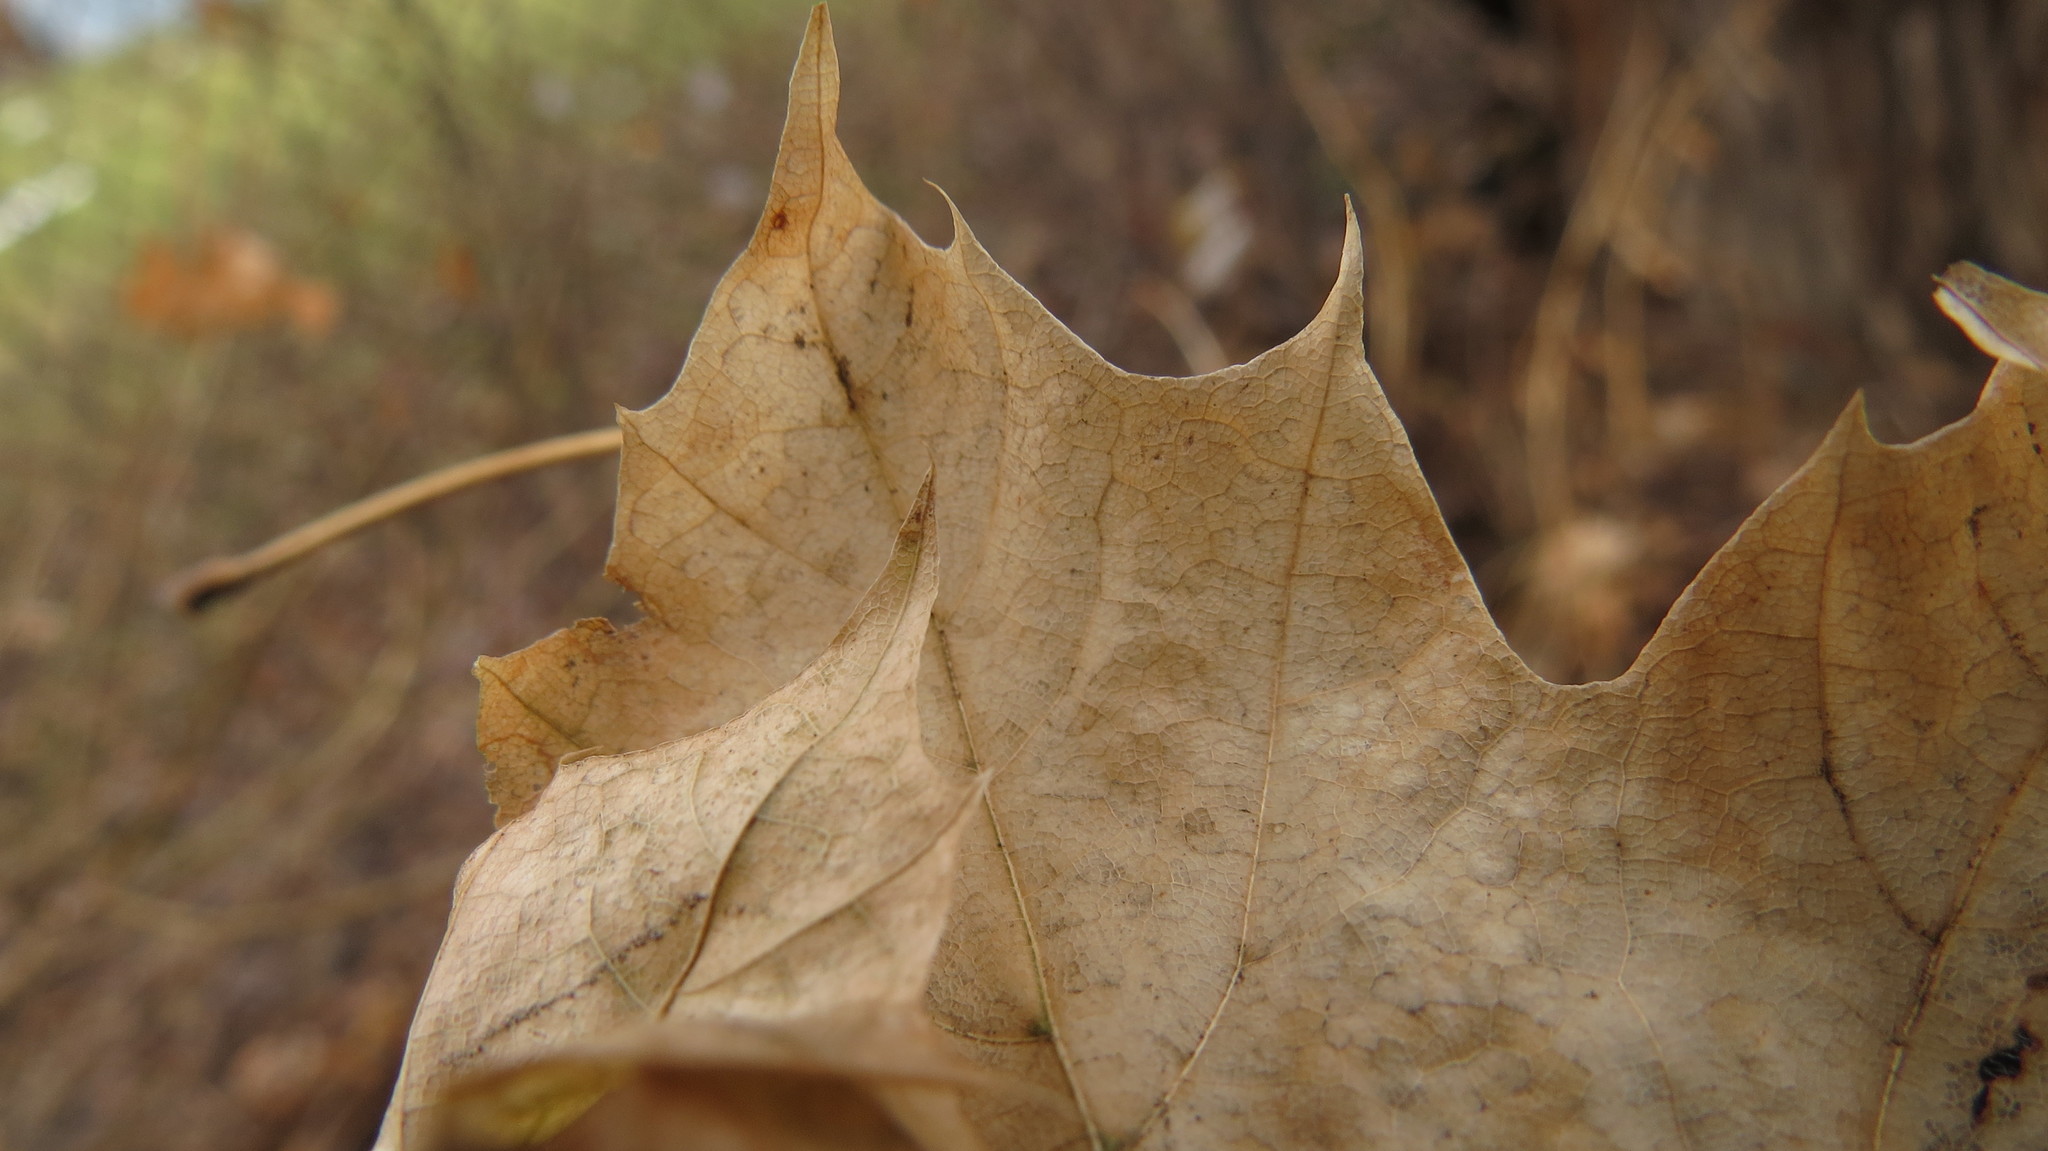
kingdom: Plantae
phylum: Tracheophyta
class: Magnoliopsida
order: Sapindales
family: Sapindaceae
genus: Acer
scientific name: Acer platanoides
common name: Norway maple
